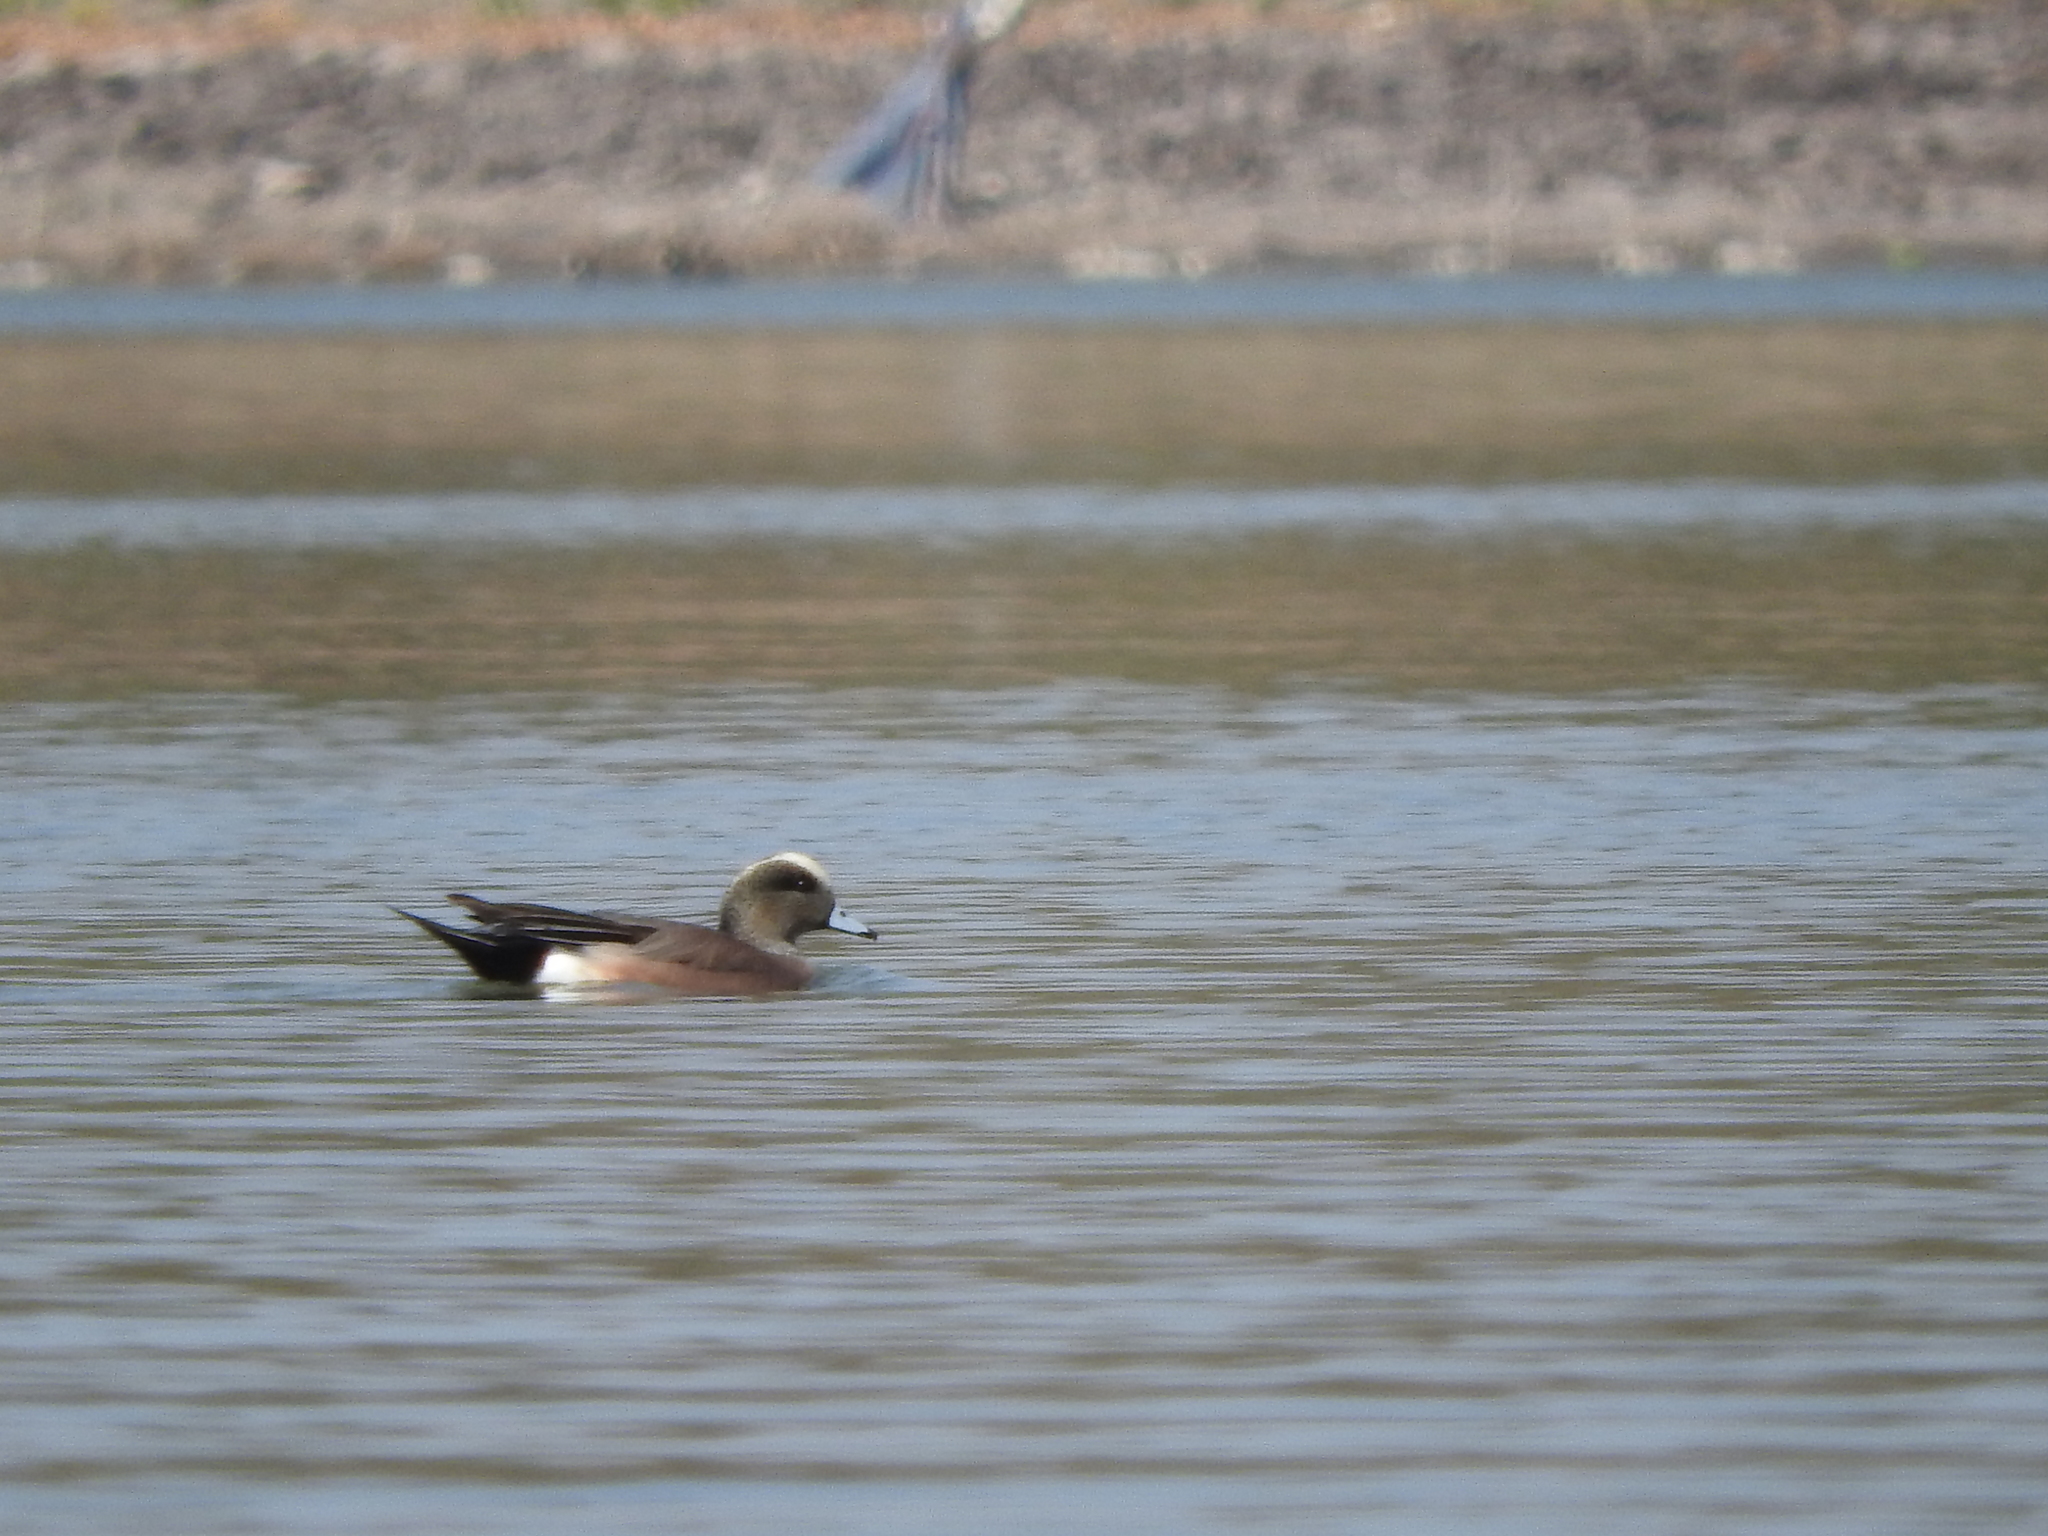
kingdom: Animalia
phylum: Chordata
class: Aves
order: Anseriformes
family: Anatidae
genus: Mareca
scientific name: Mareca americana
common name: American wigeon
